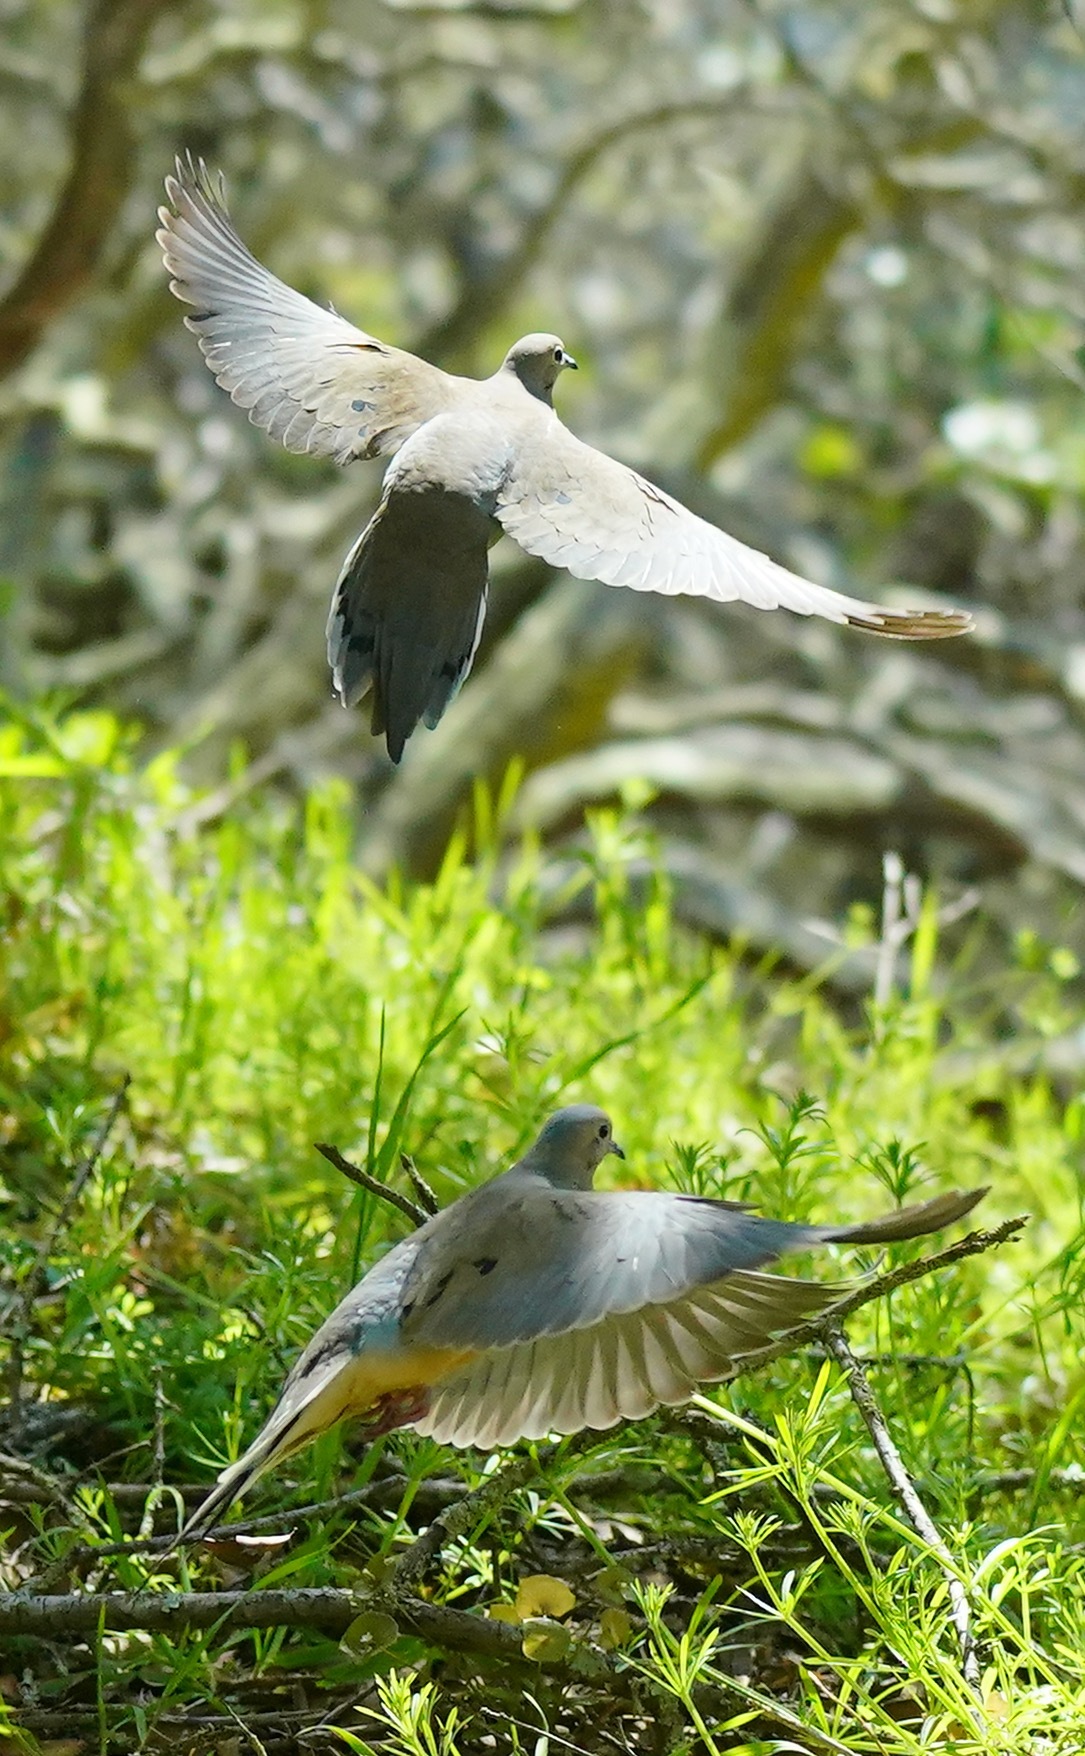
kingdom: Animalia
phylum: Chordata
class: Aves
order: Columbiformes
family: Columbidae
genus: Zenaida
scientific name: Zenaida macroura
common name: Mourning dove
